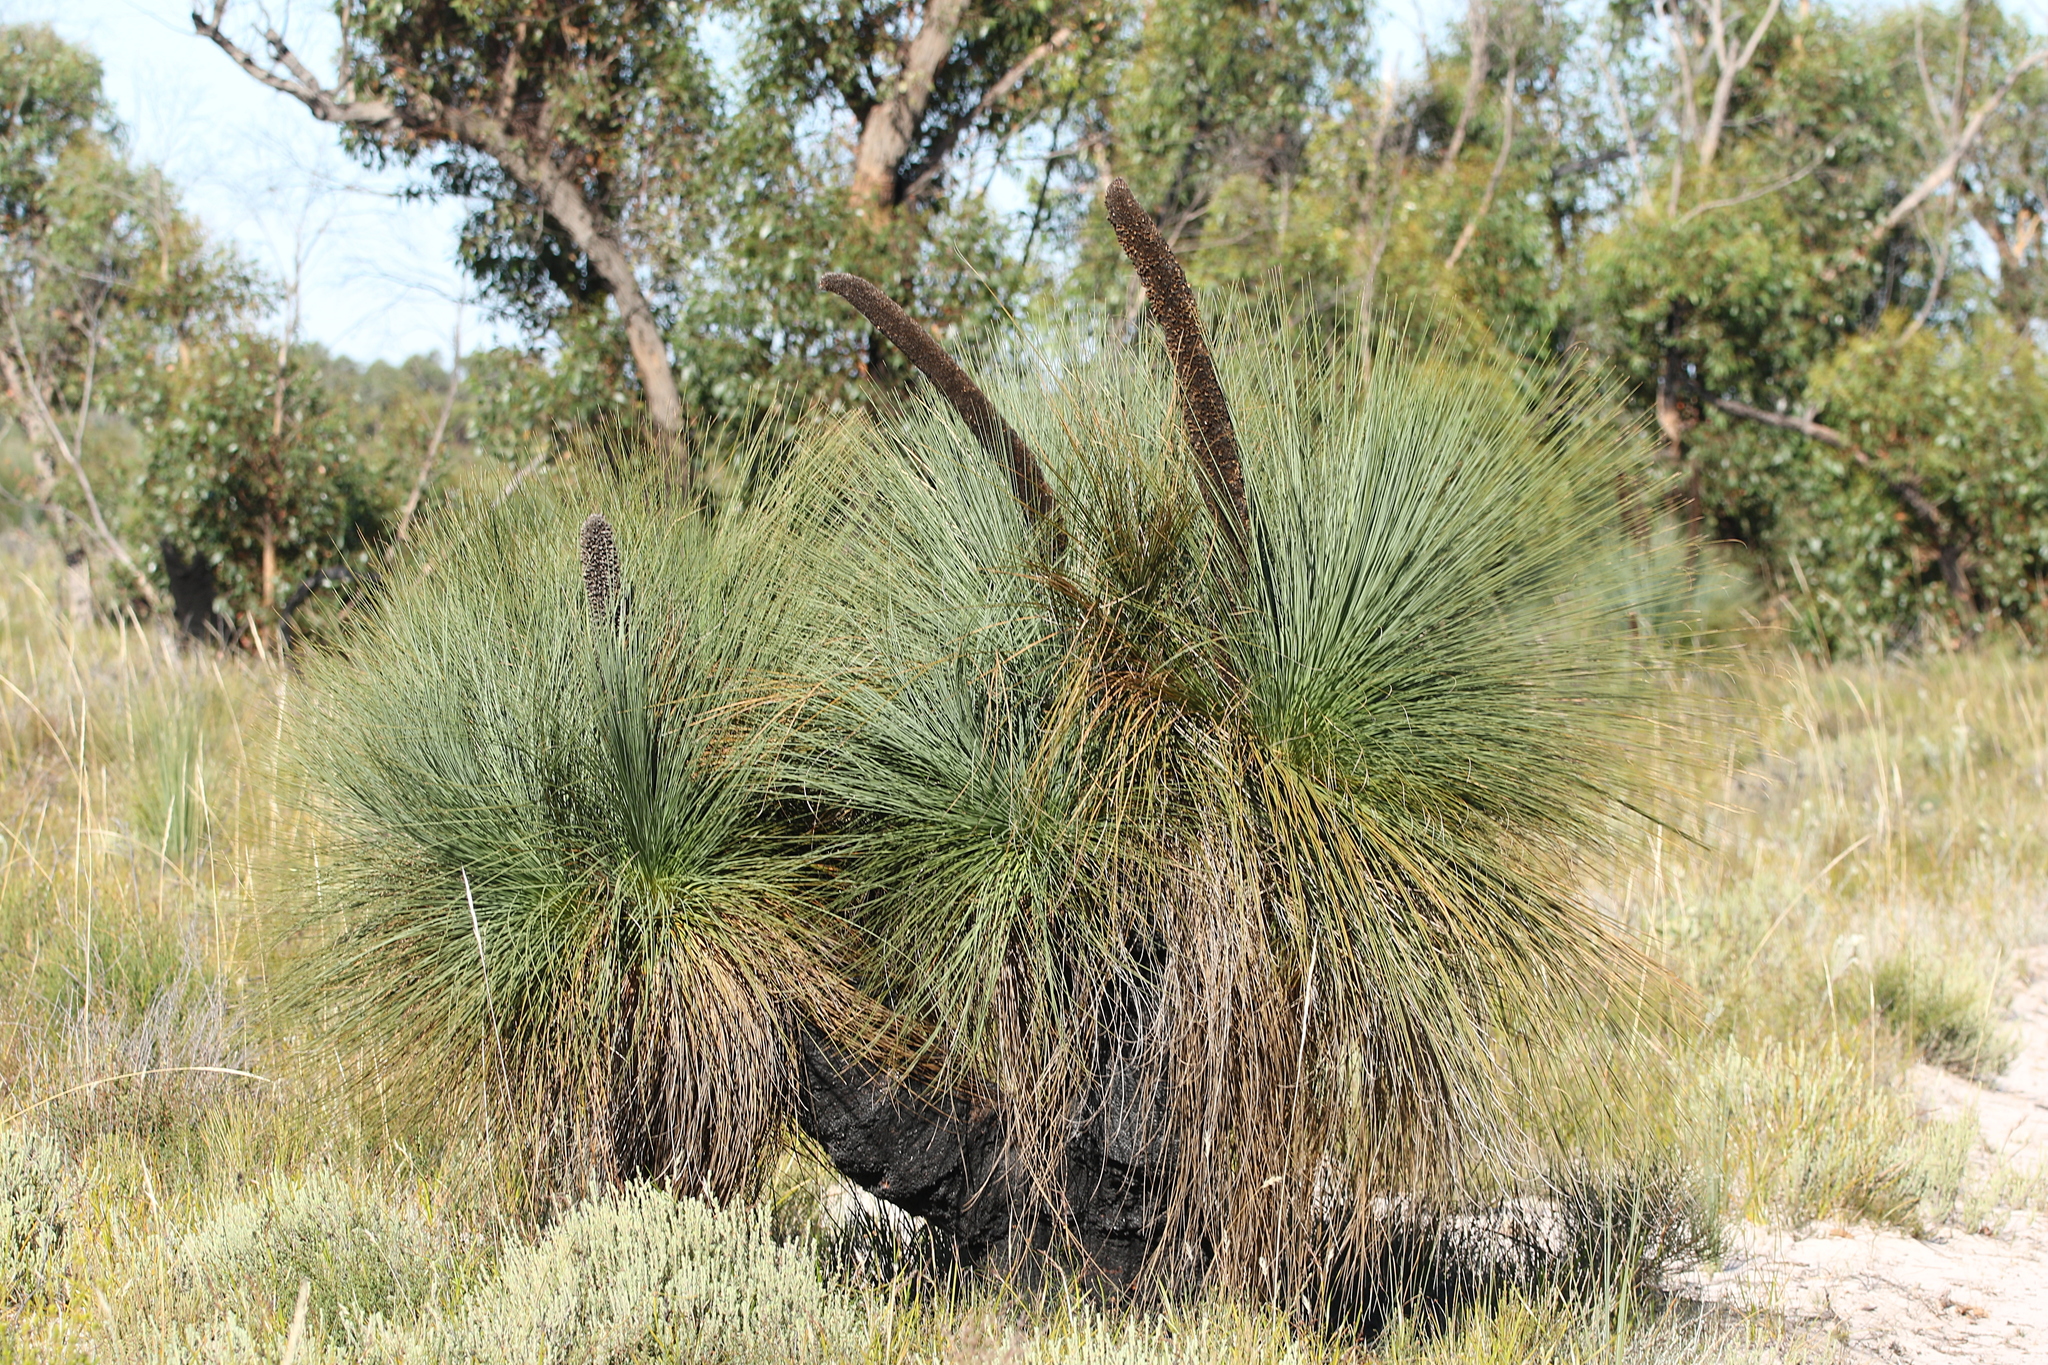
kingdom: Plantae
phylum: Tracheophyta
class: Liliopsida
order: Asparagales
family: Asphodelaceae
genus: Xanthorrhoea
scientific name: Xanthorrhoea australis
